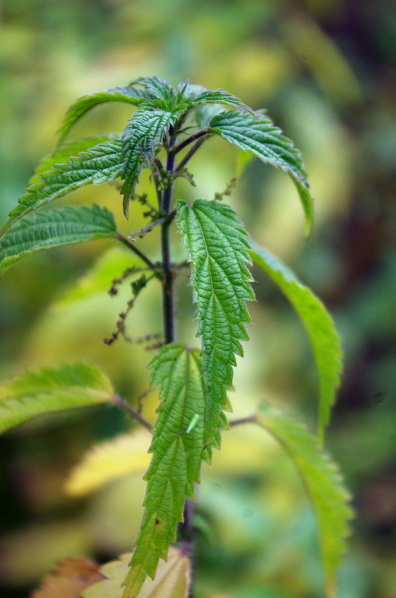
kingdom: Plantae
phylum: Tracheophyta
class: Magnoliopsida
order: Rosales
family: Urticaceae
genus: Urtica
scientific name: Urtica dioica
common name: Common nettle
